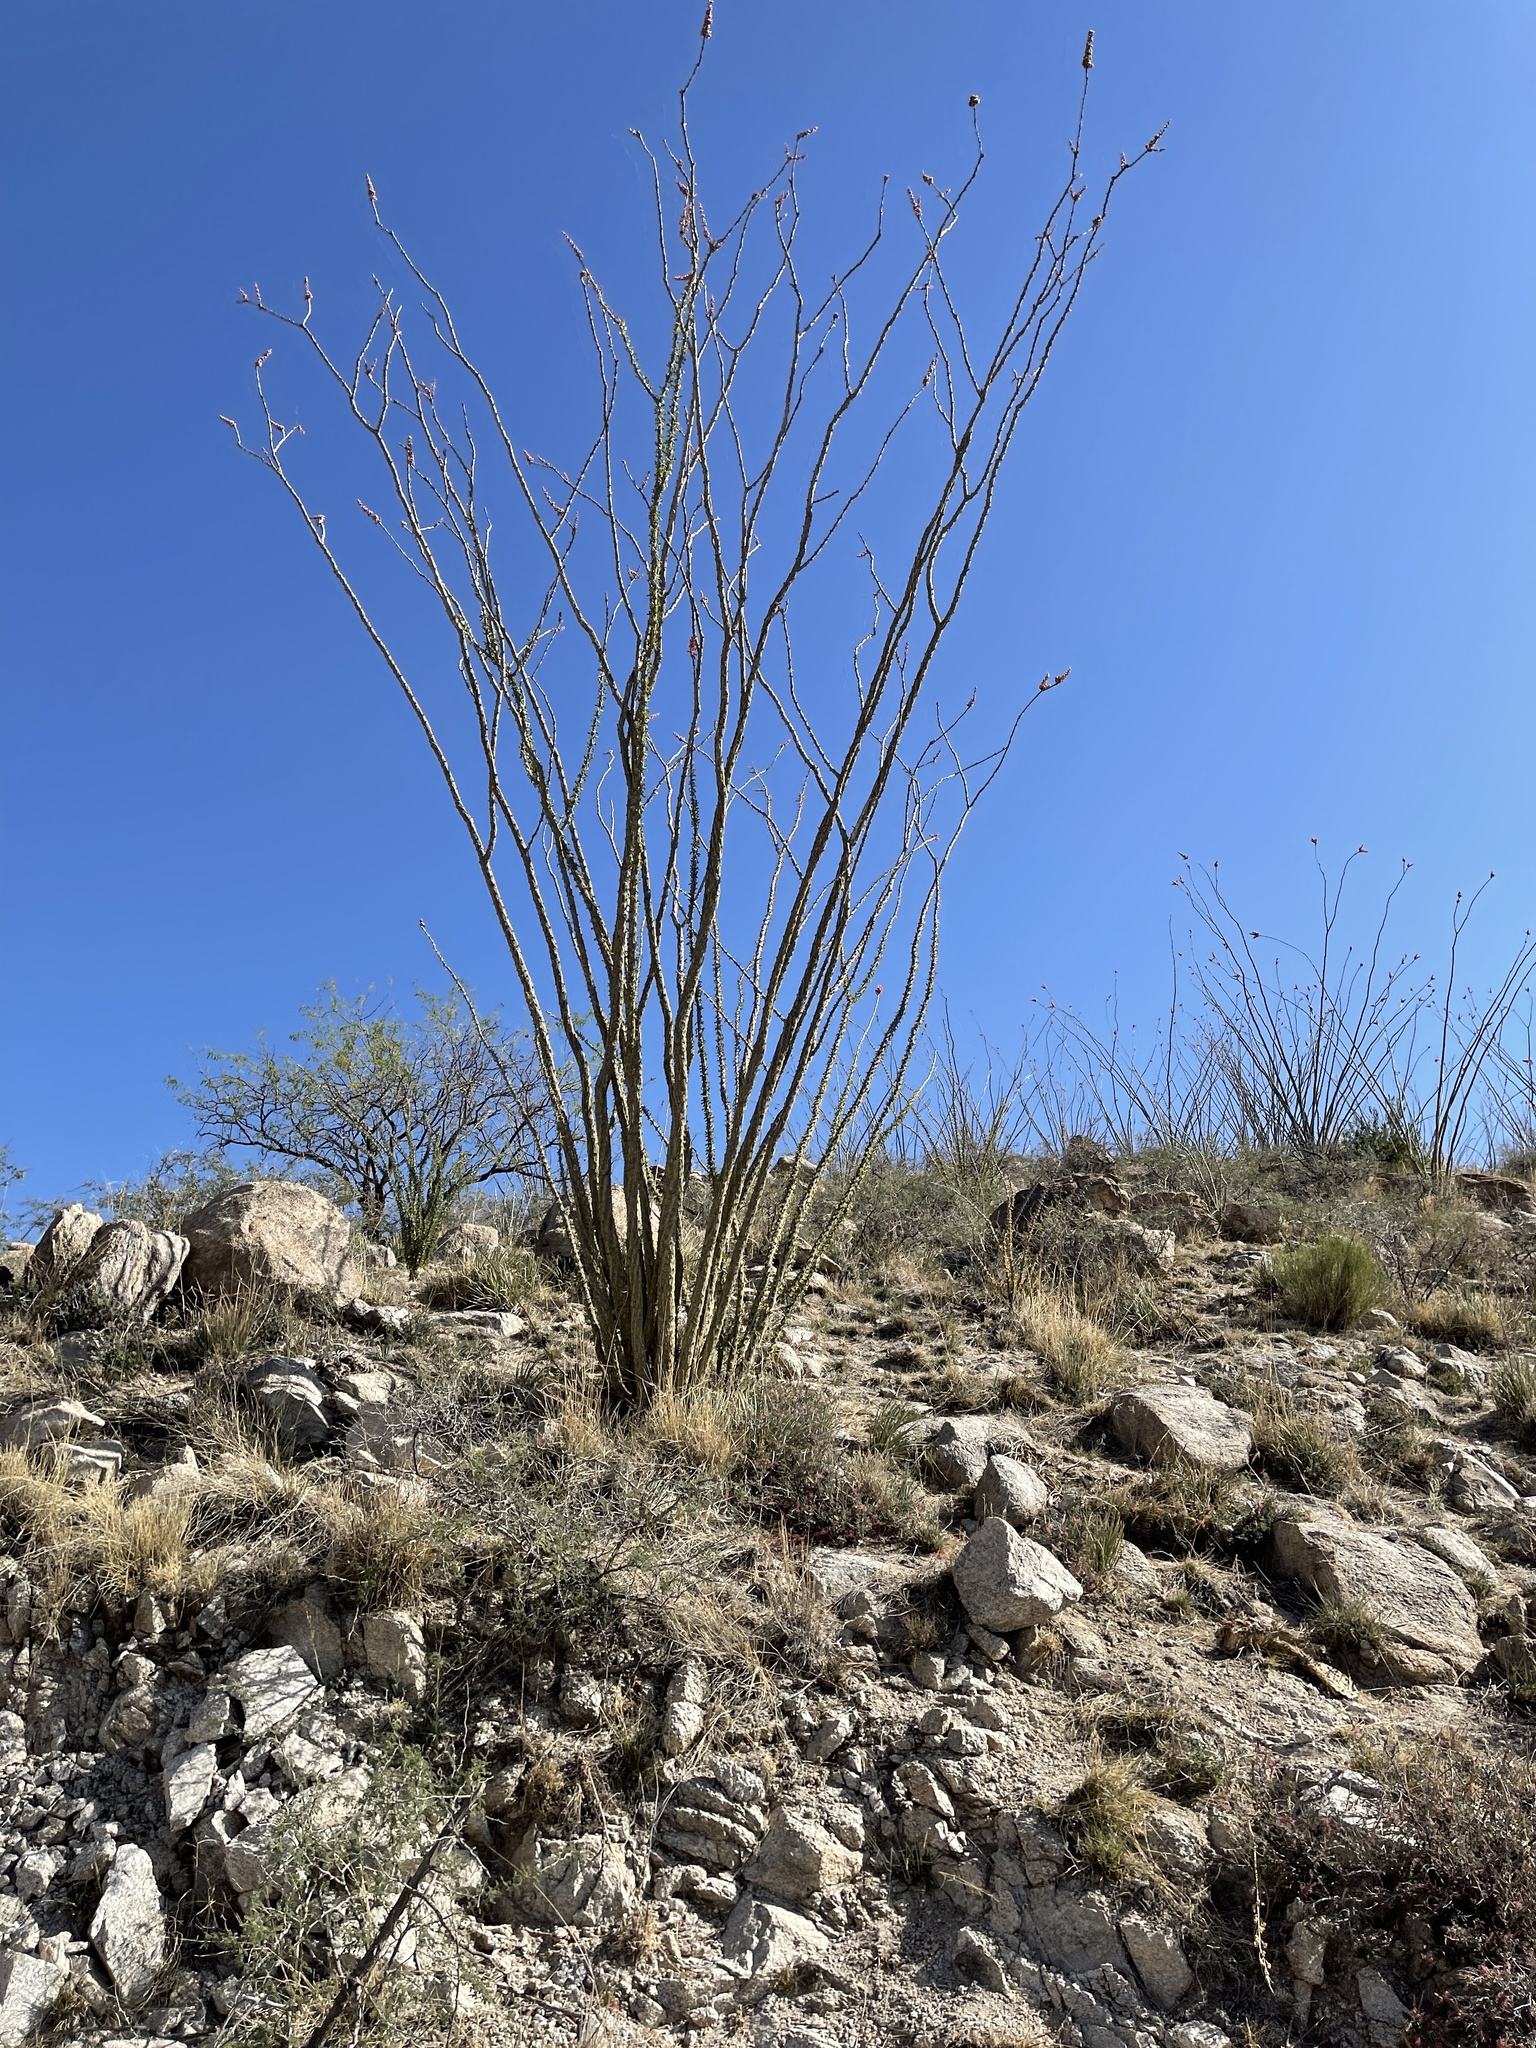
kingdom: Plantae
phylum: Tracheophyta
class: Magnoliopsida
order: Ericales
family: Fouquieriaceae
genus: Fouquieria
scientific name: Fouquieria splendens
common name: Vine-cactus
